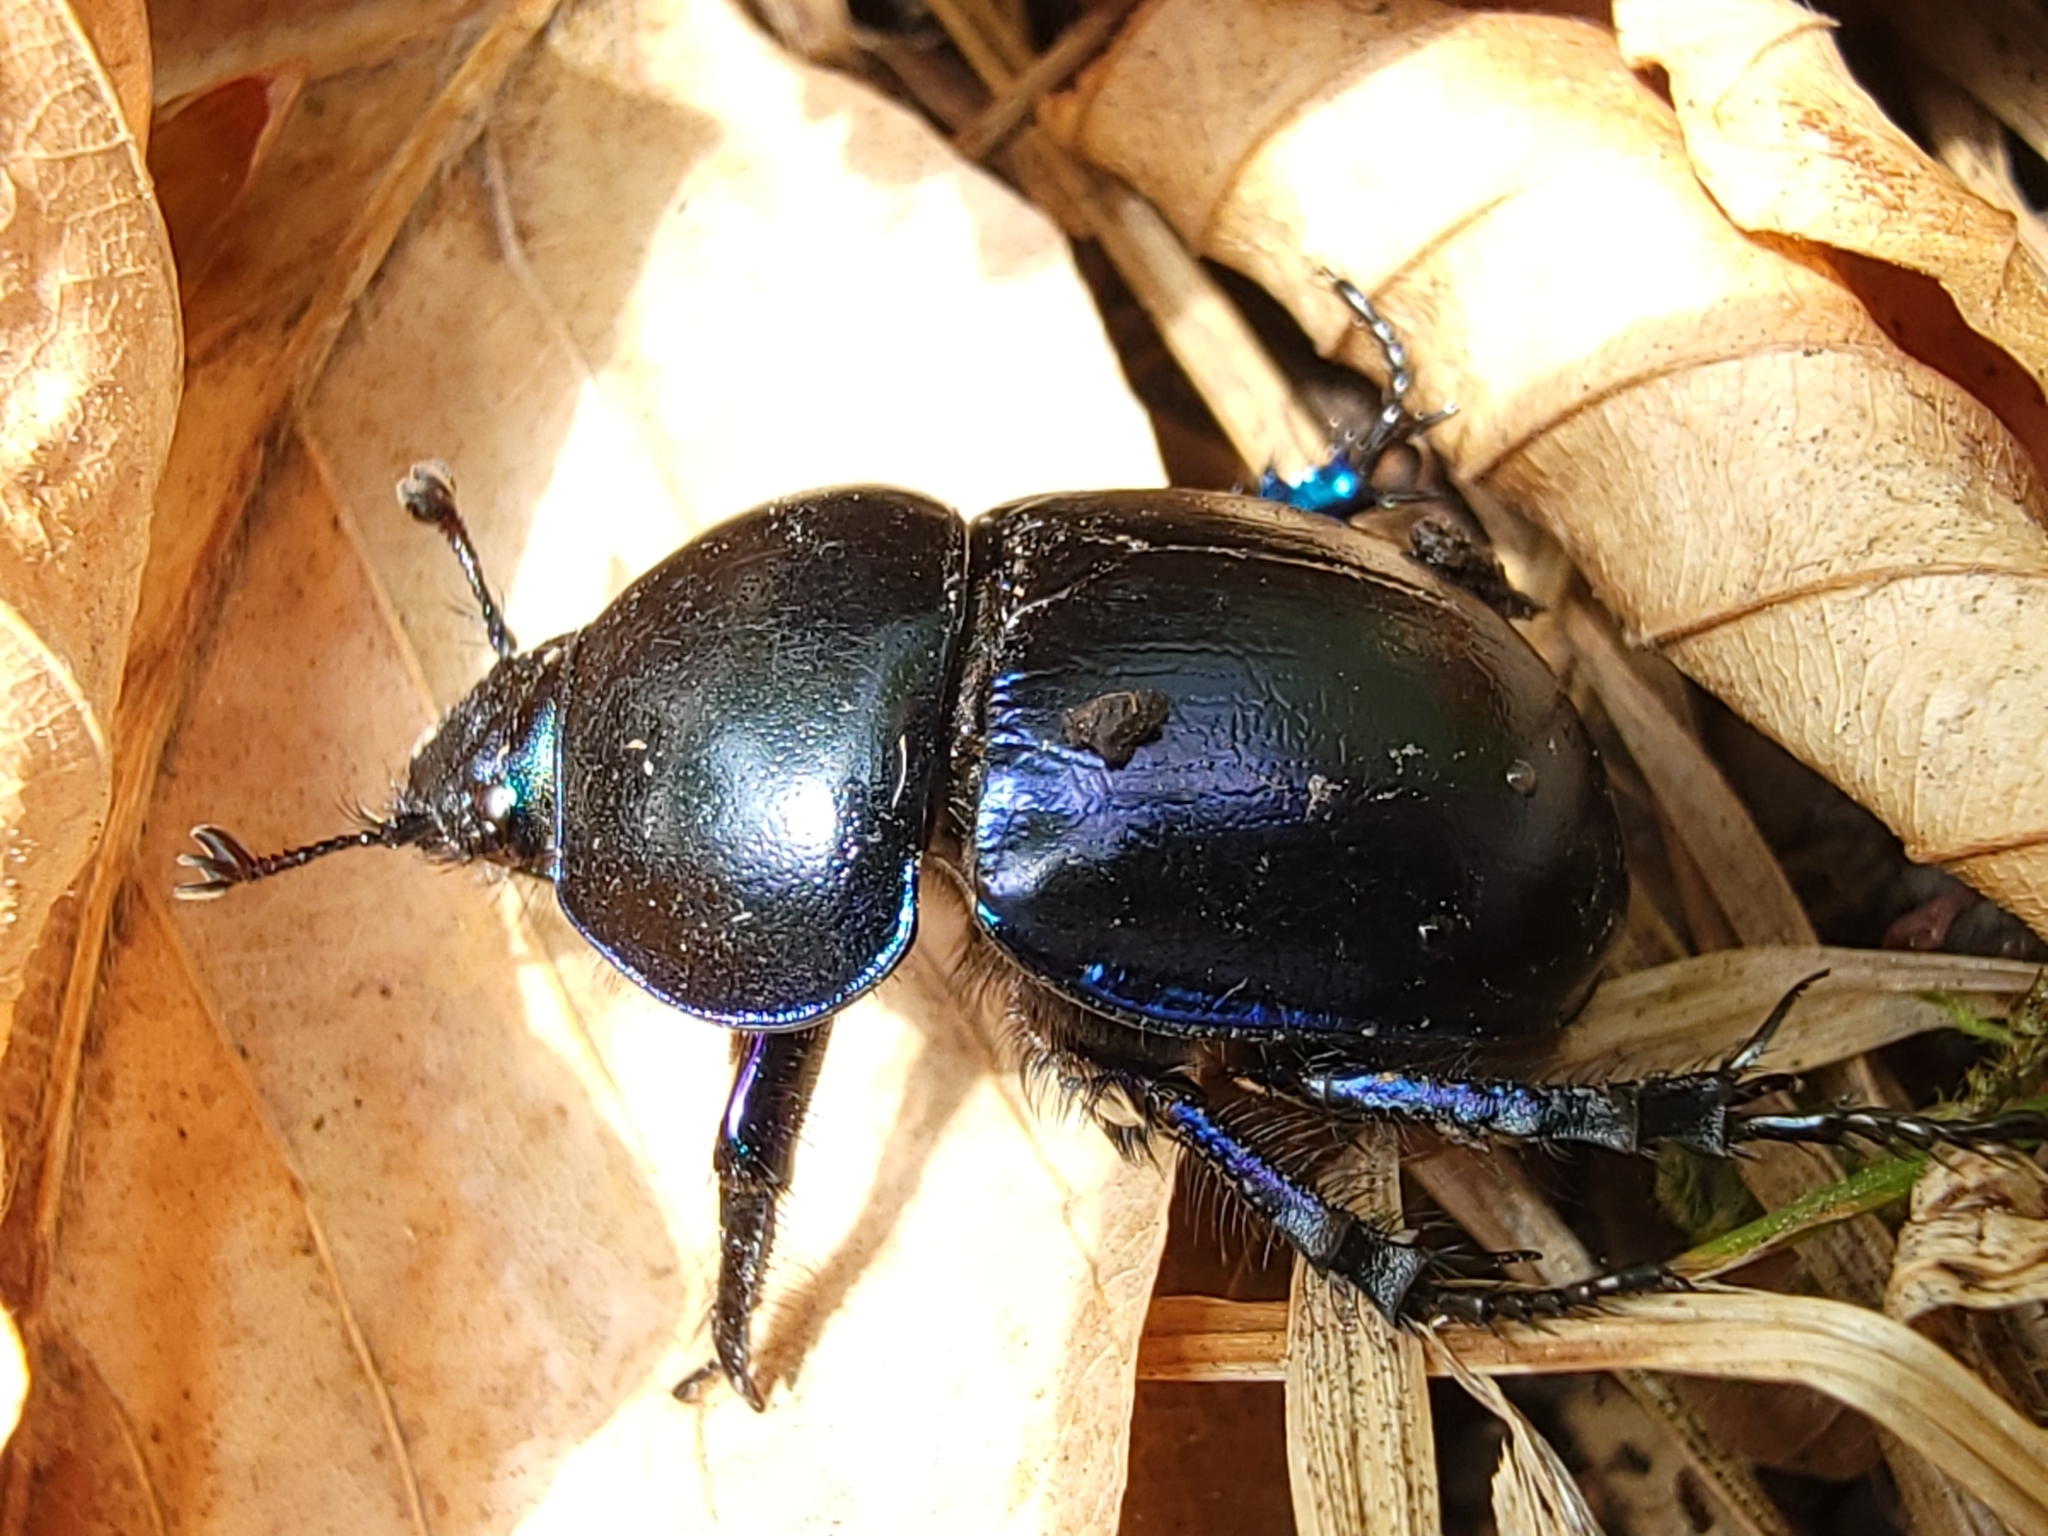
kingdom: Animalia
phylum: Arthropoda
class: Insecta
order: Coleoptera
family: Geotrupidae
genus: Trypocopris
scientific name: Trypocopris vernalis
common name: Spring dumbledor
